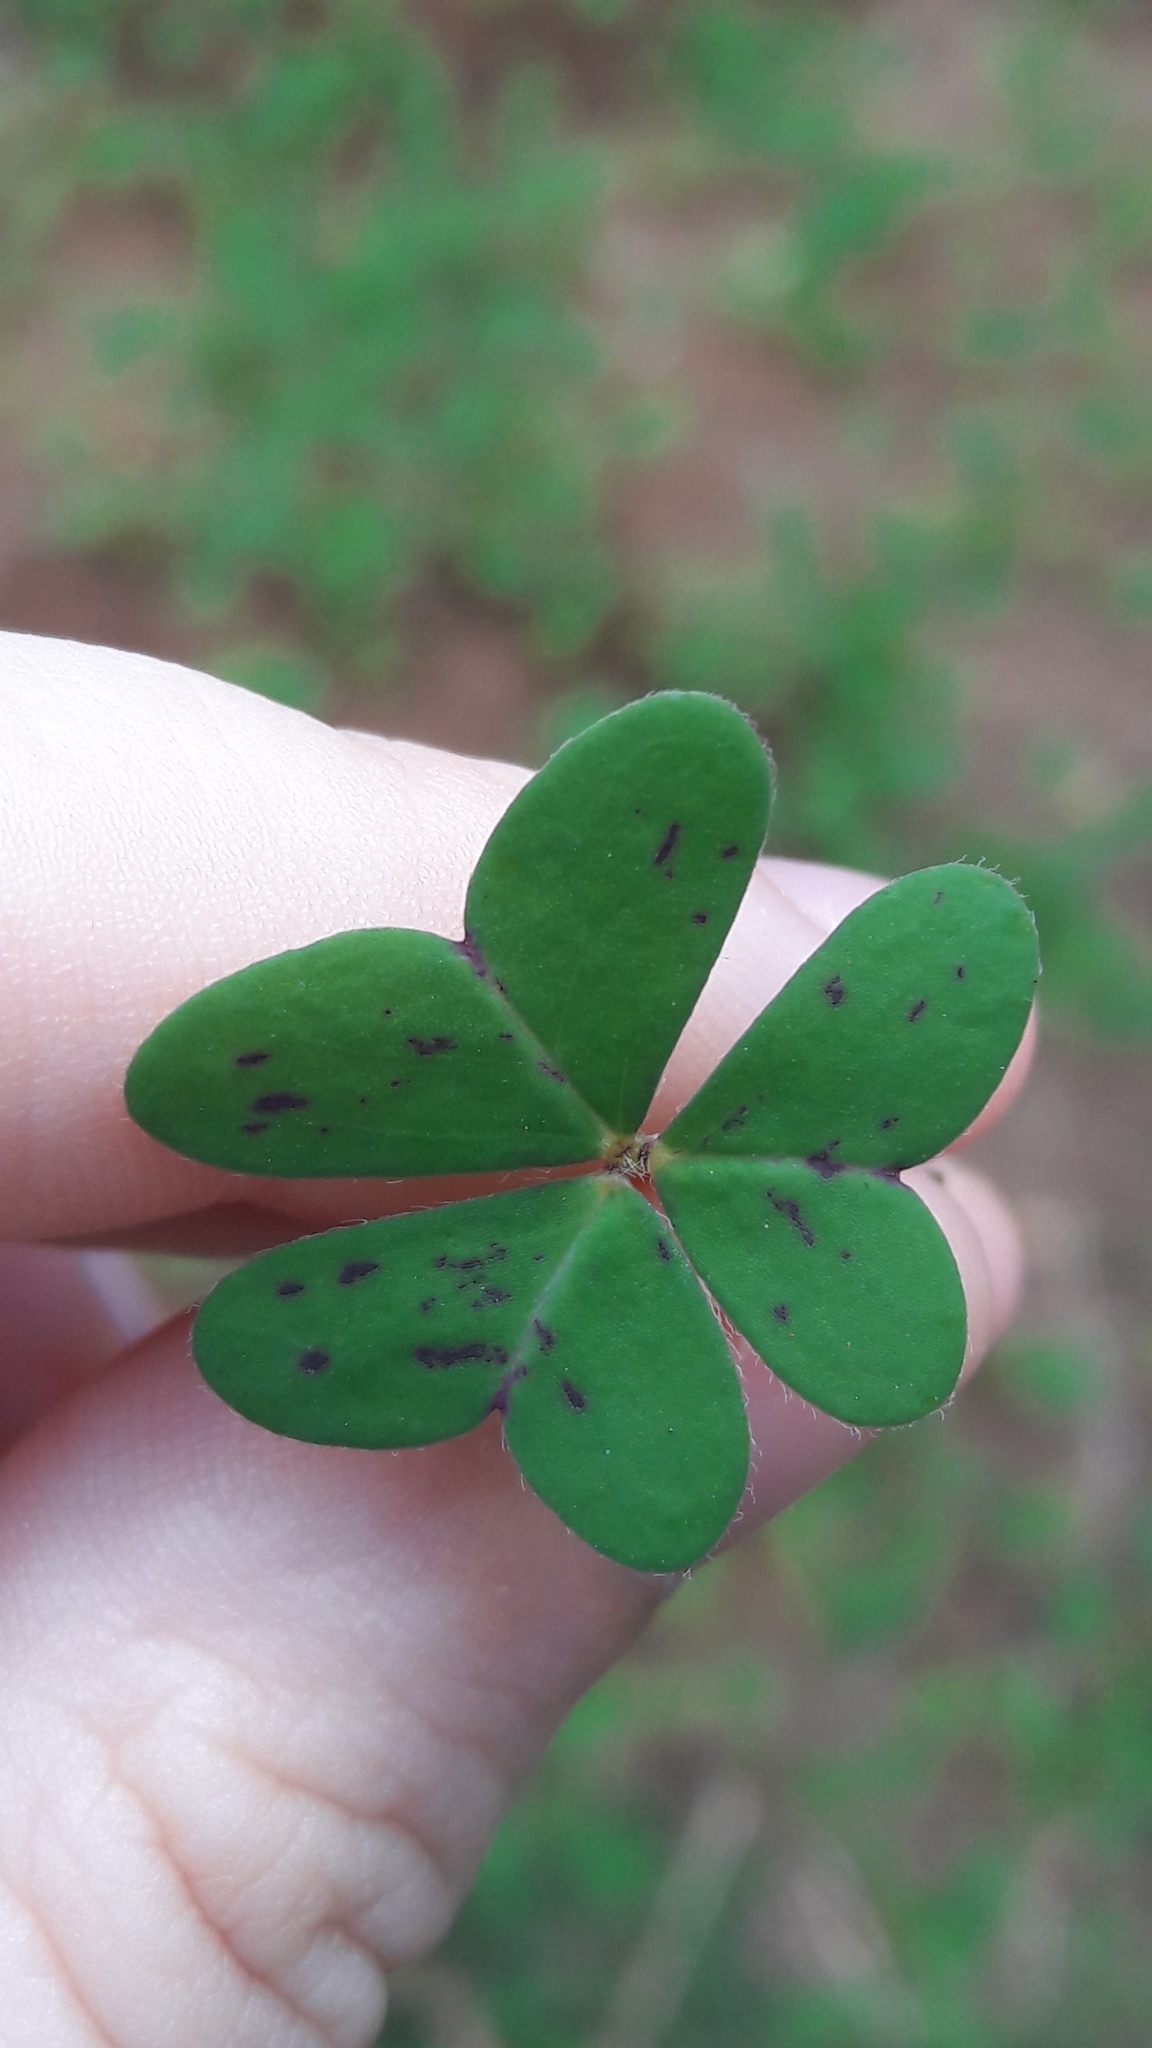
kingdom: Plantae
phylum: Tracheophyta
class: Magnoliopsida
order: Oxalidales
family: Oxalidaceae
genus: Oxalis
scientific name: Oxalis pes-caprae
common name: Bermuda-buttercup
